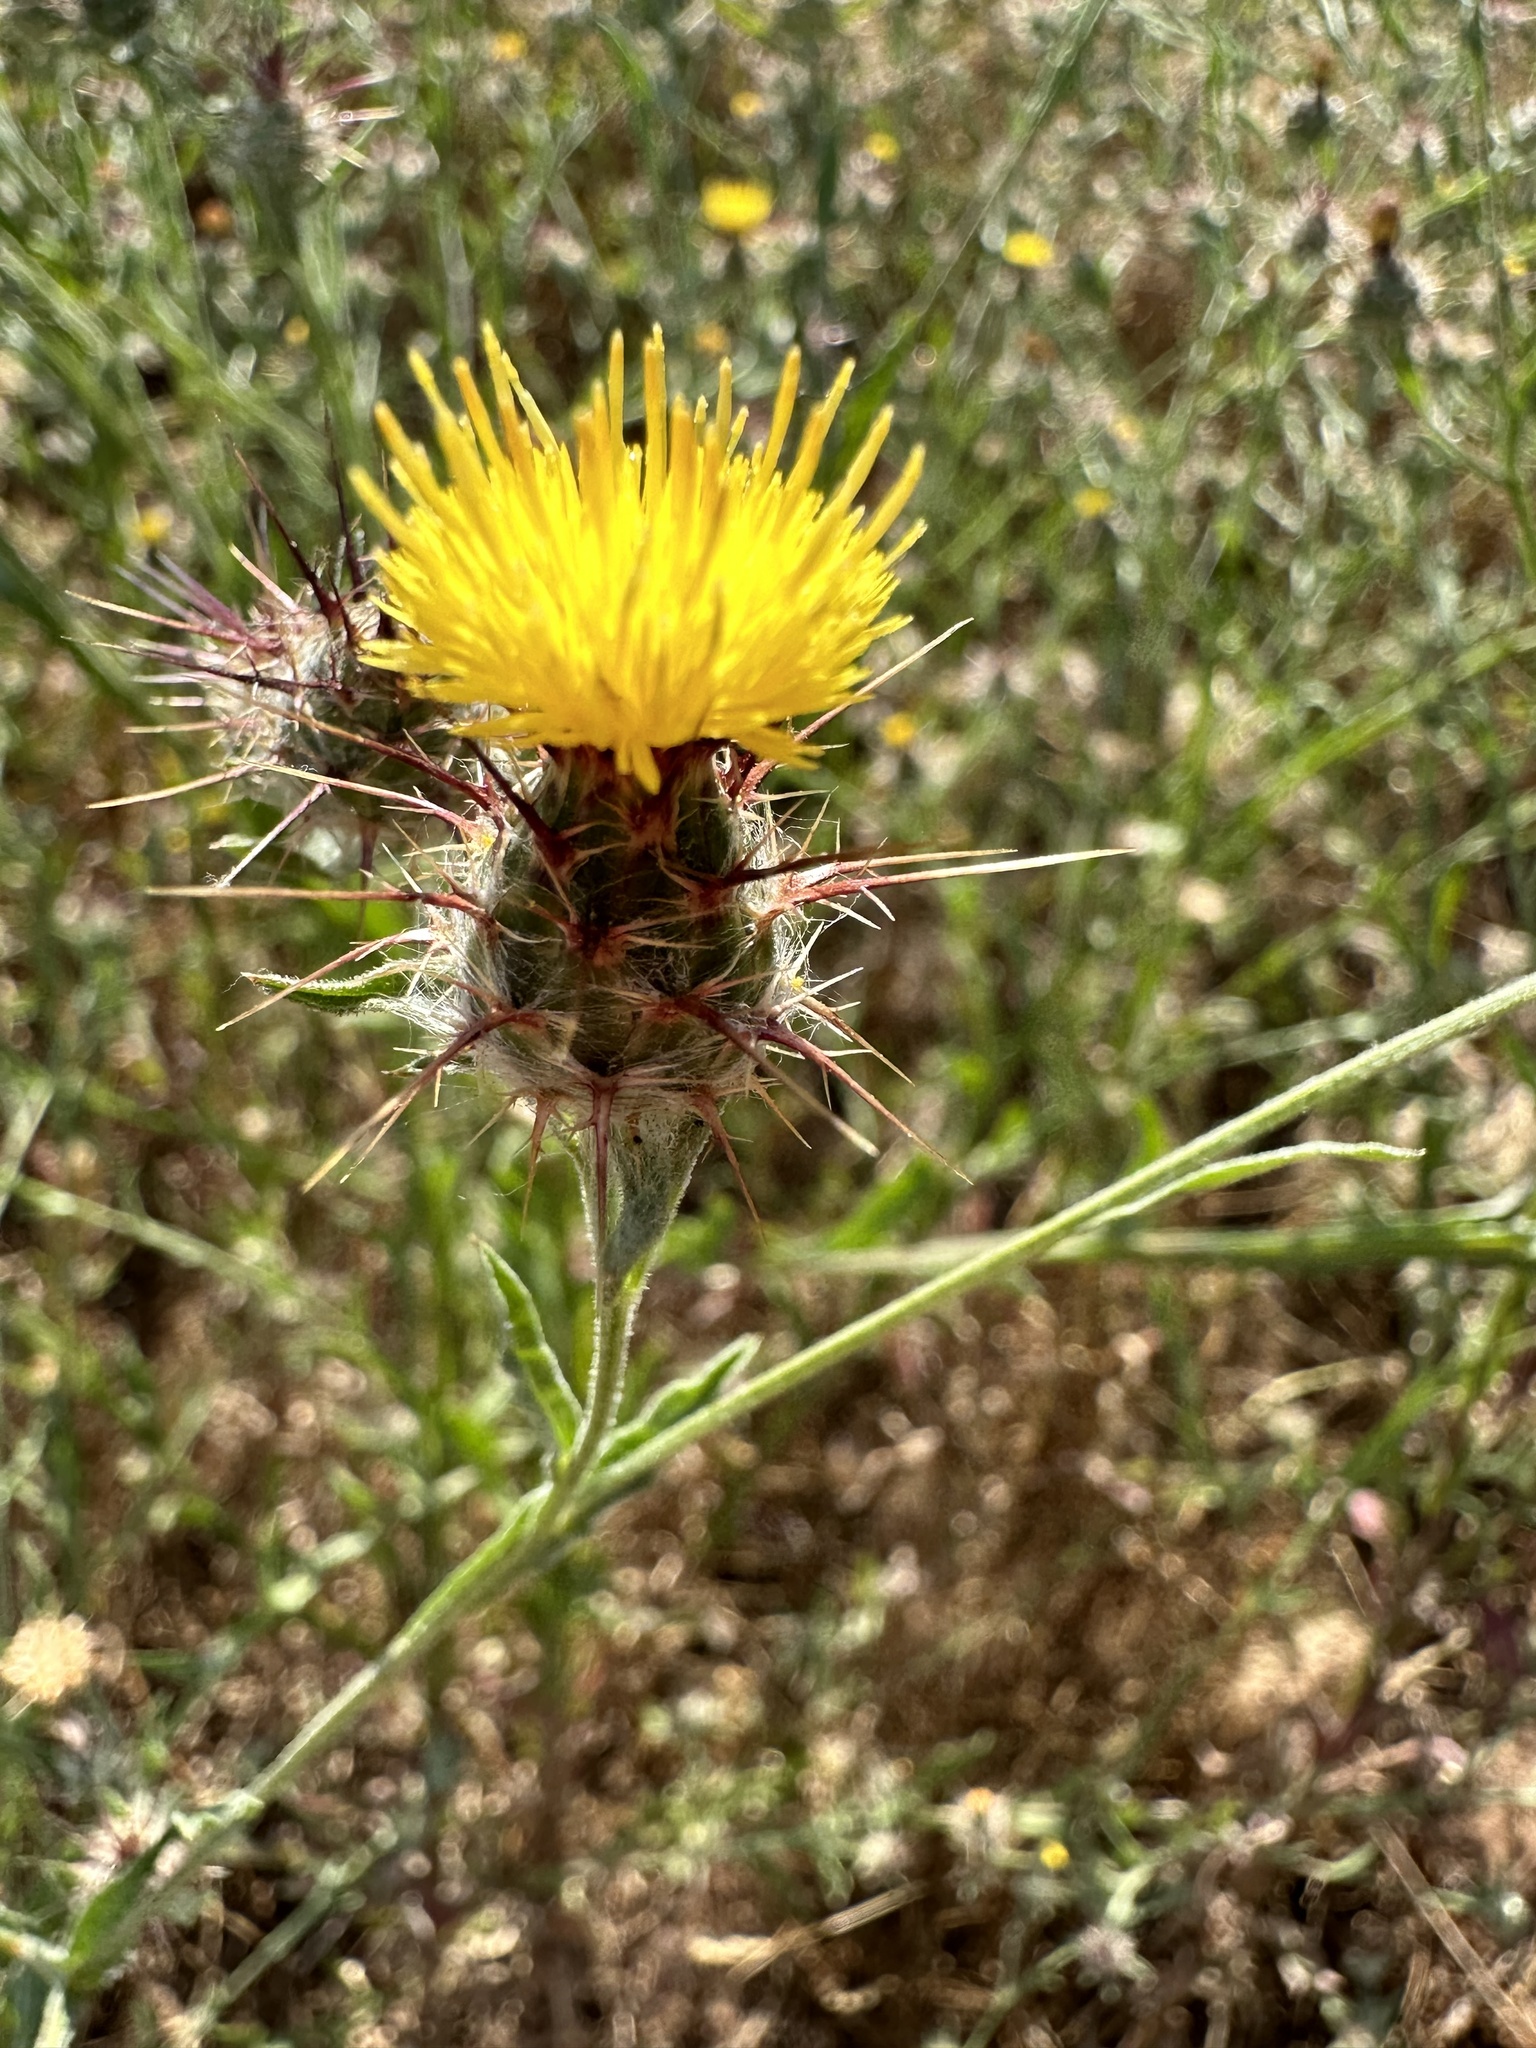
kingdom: Plantae
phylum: Tracheophyta
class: Magnoliopsida
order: Asterales
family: Asteraceae
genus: Centaurea
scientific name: Centaurea melitensis
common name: Maltese star-thistle
